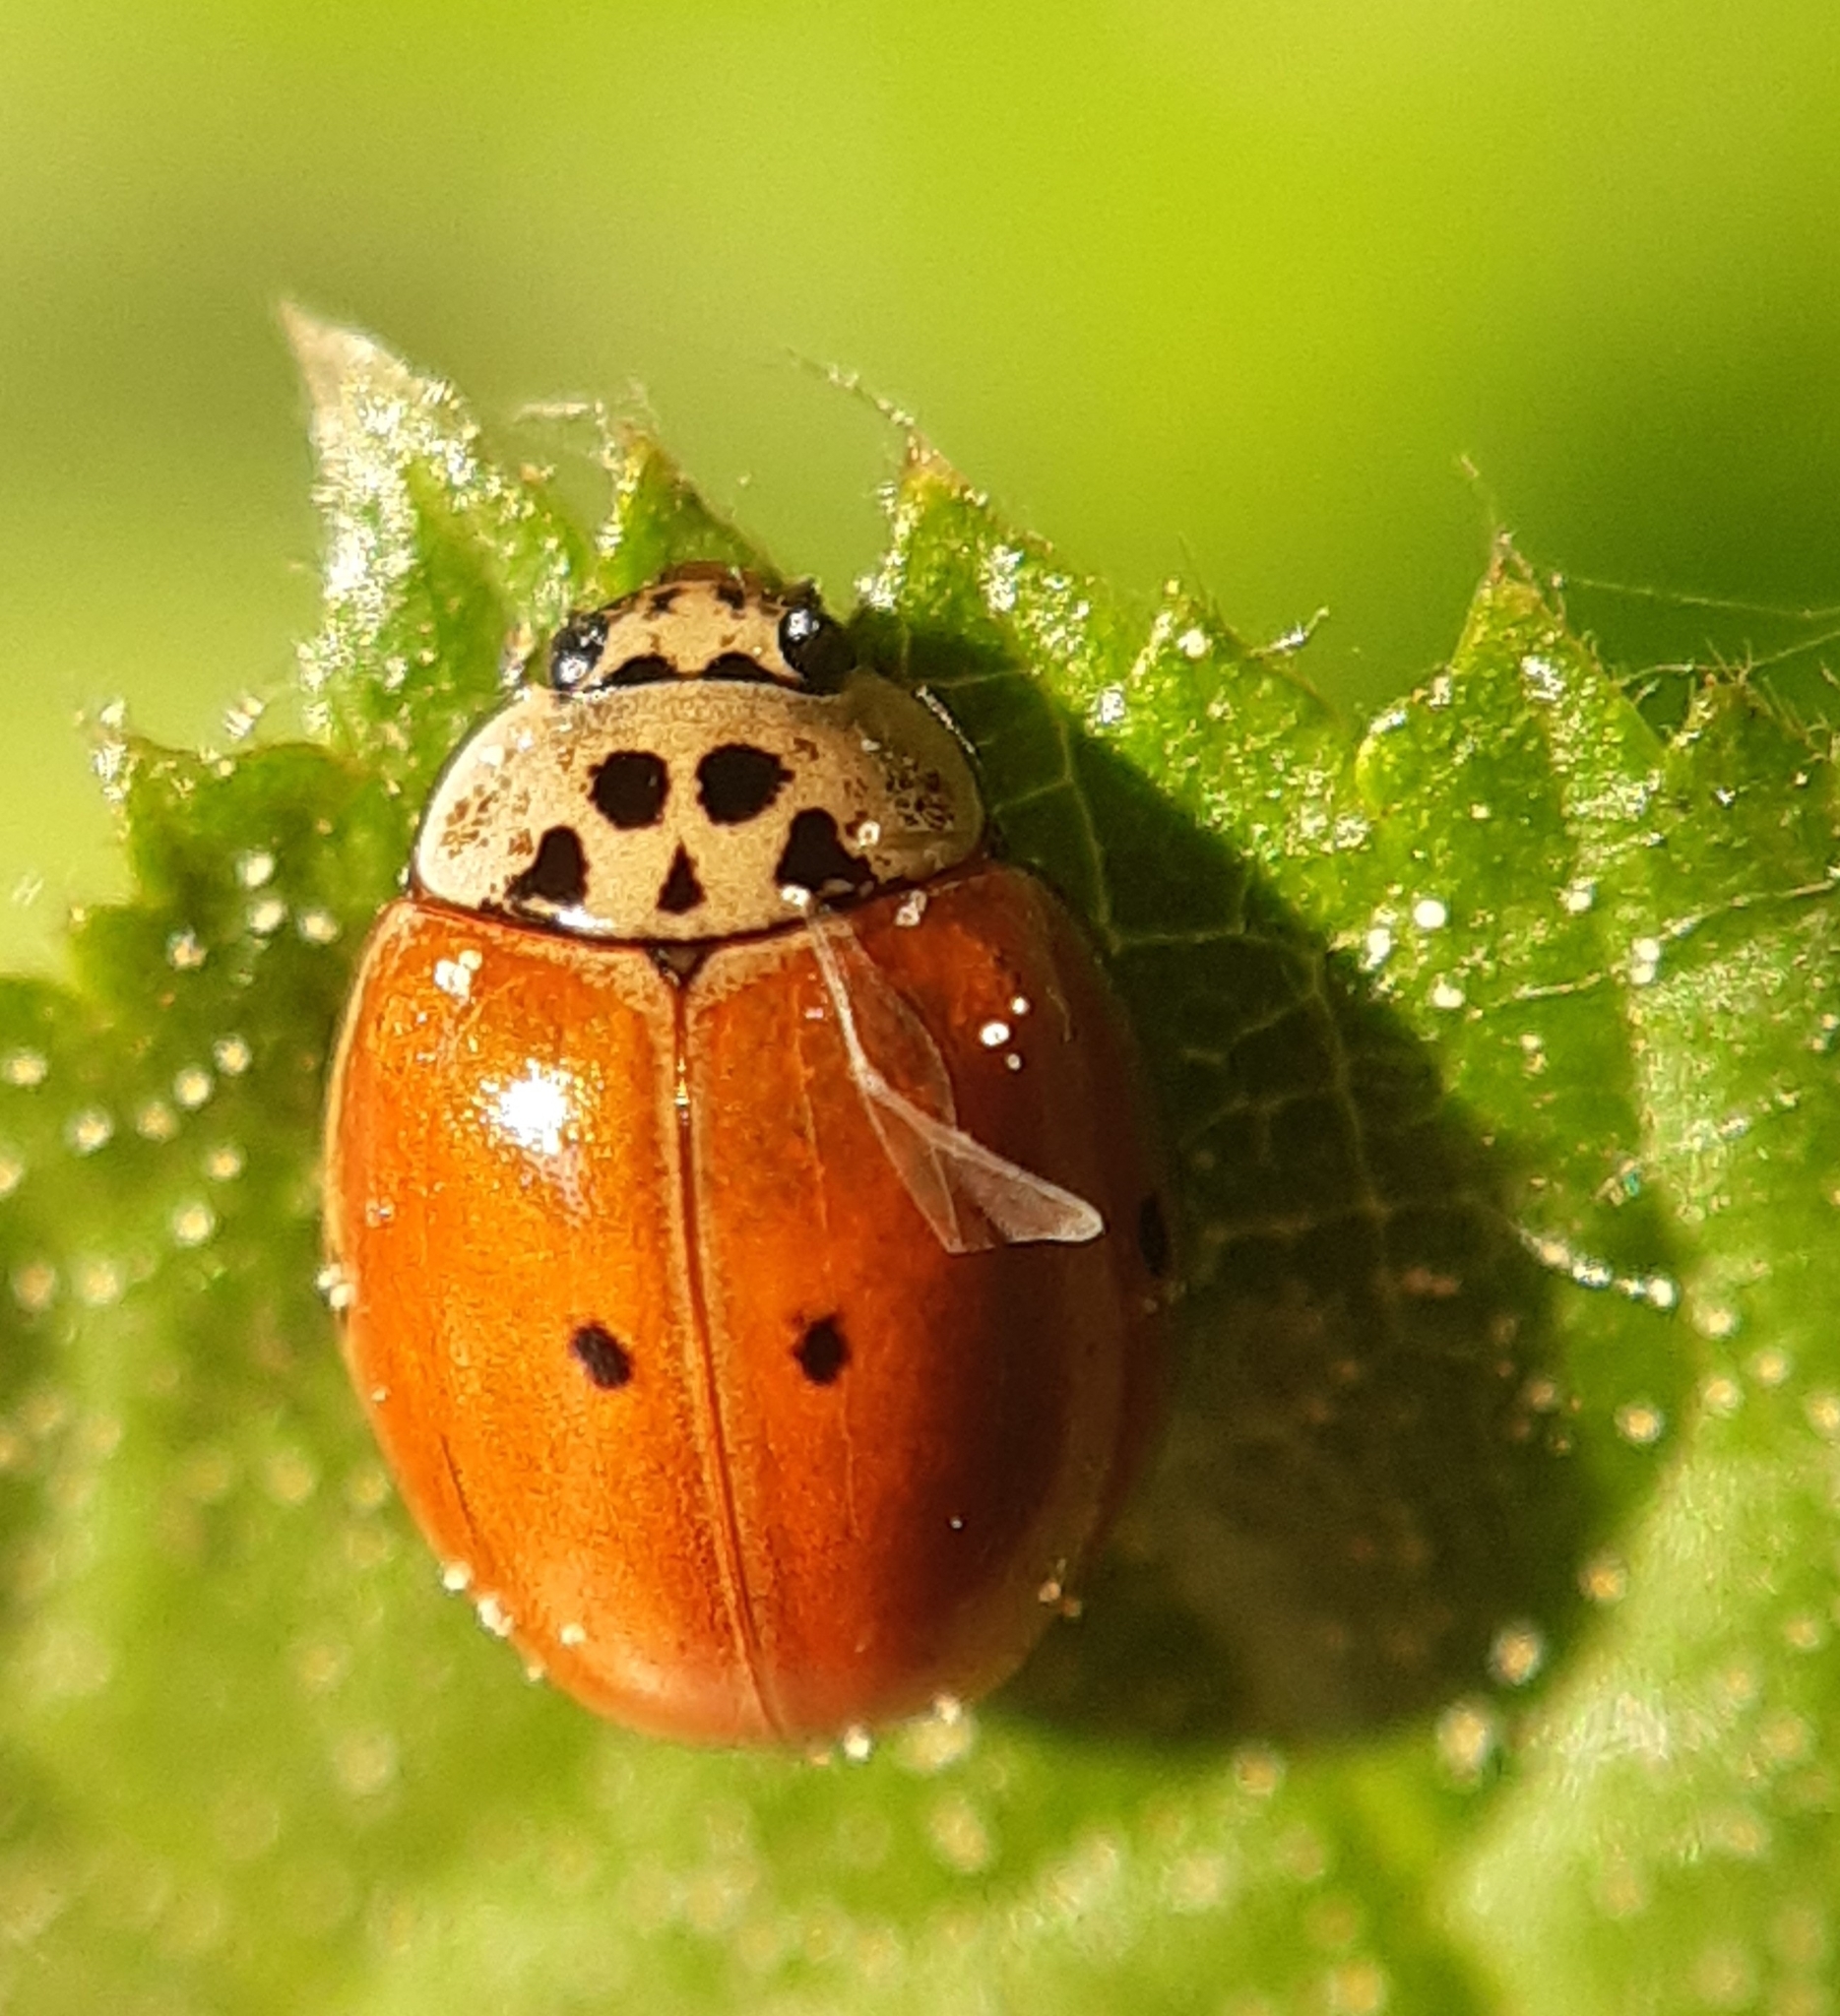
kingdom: Animalia
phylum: Arthropoda
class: Insecta
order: Coleoptera
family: Coccinellidae
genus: Adalia
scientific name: Adalia decempunctata
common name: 10-spot ladybird
